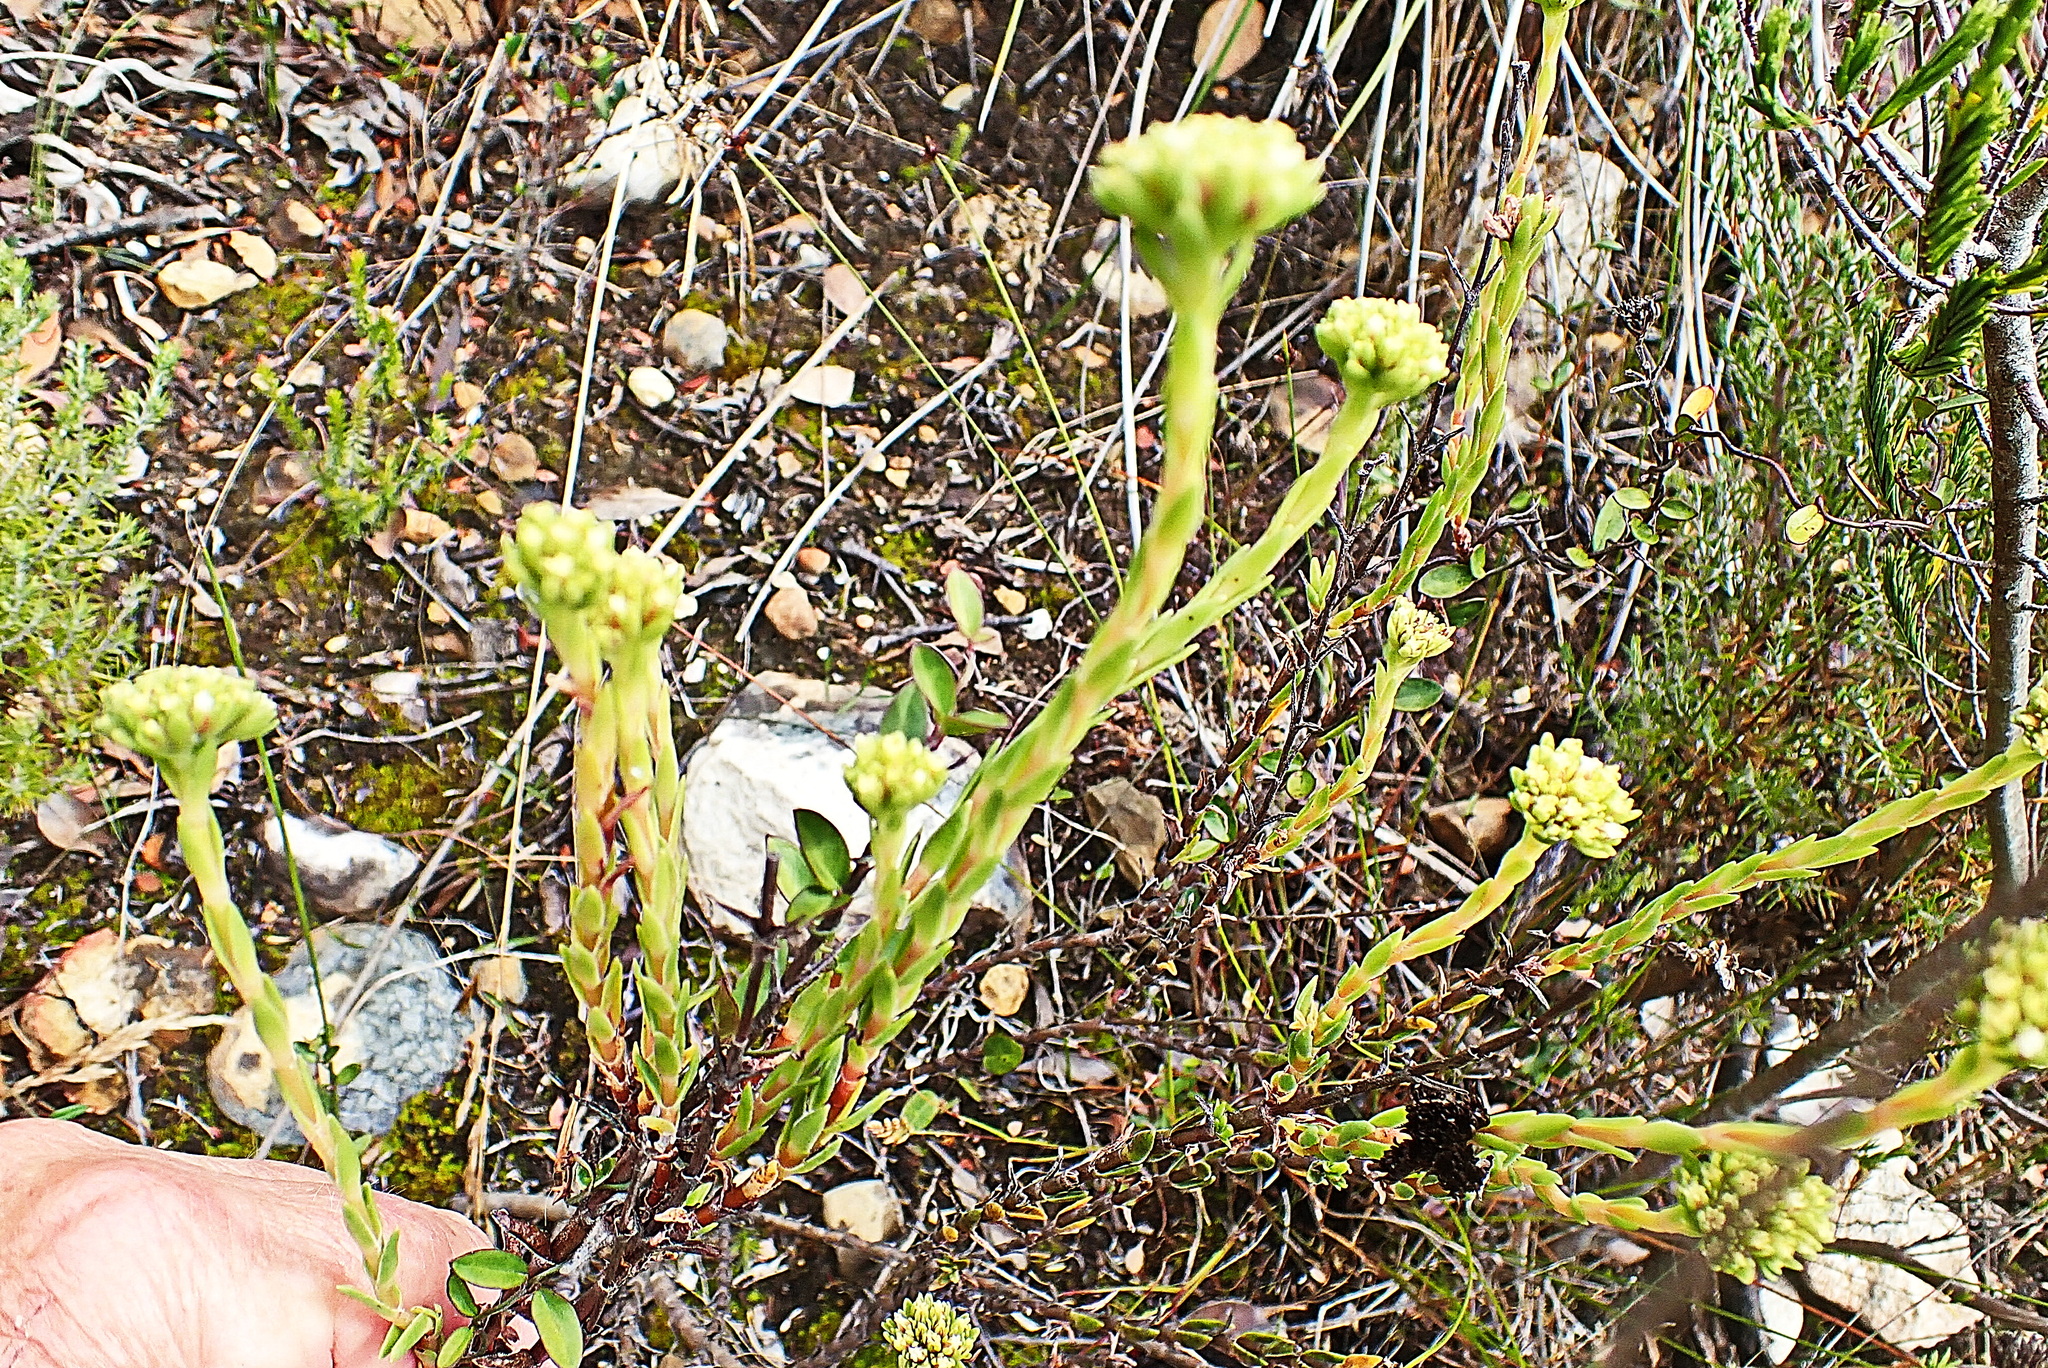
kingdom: Plantae
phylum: Tracheophyta
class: Magnoliopsida
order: Saxifragales
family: Crassulaceae
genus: Crassula
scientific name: Crassula subulata
